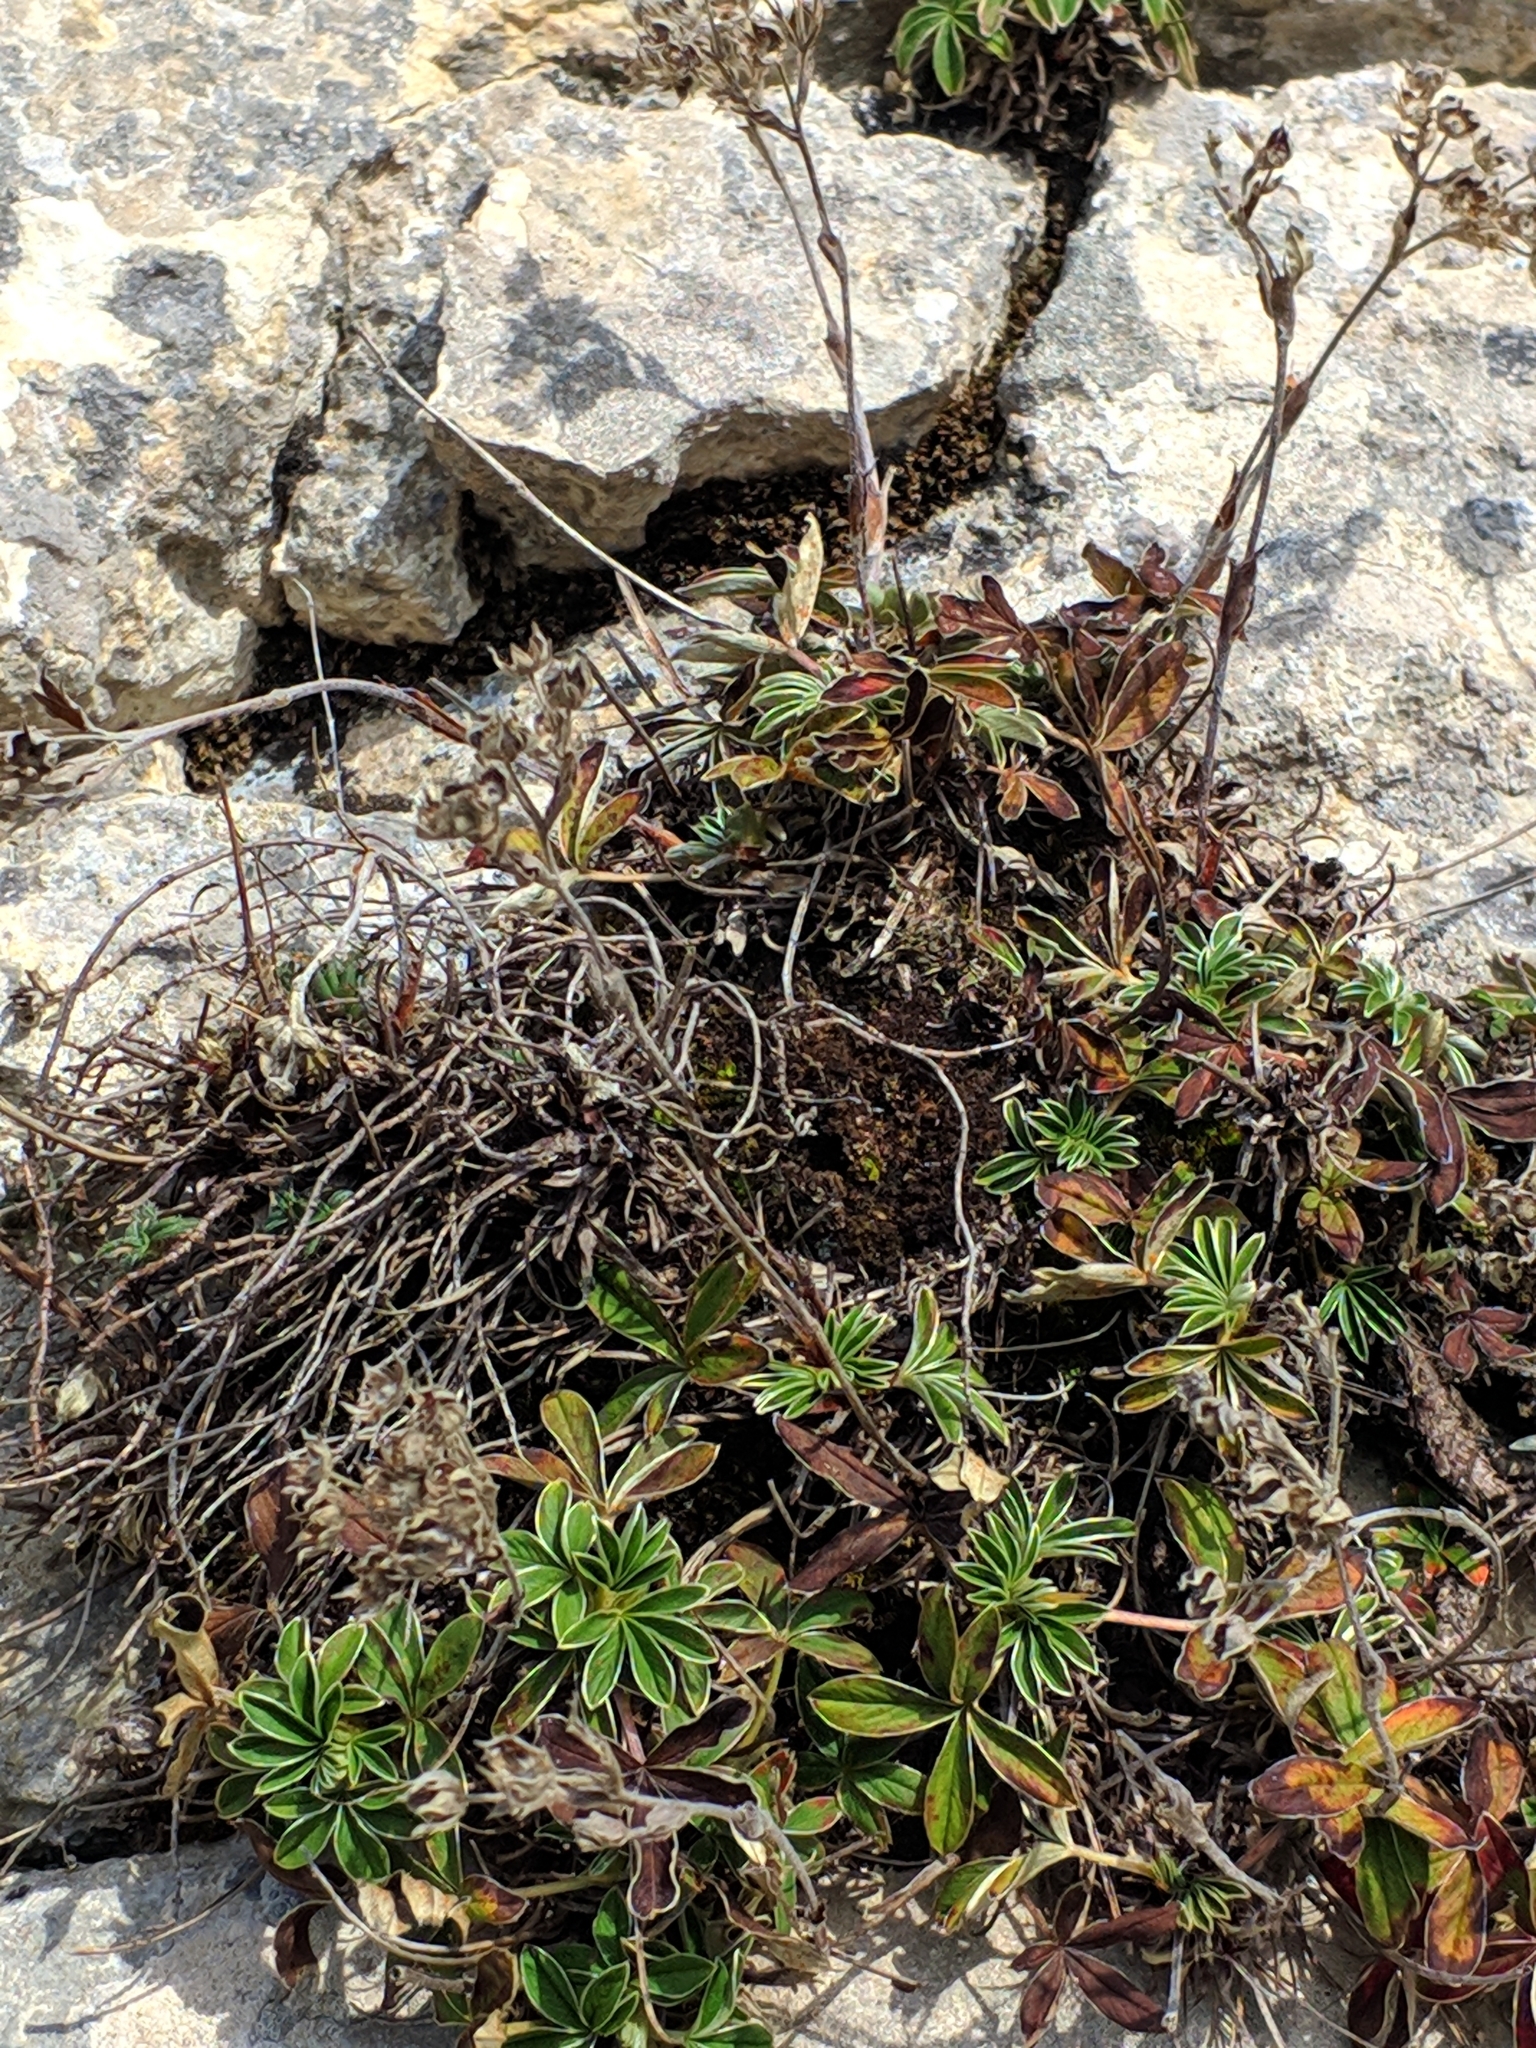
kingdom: Plantae
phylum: Tracheophyta
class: Magnoliopsida
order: Rosales
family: Rosaceae
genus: Potentilla
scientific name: Potentilla alchimilloides
